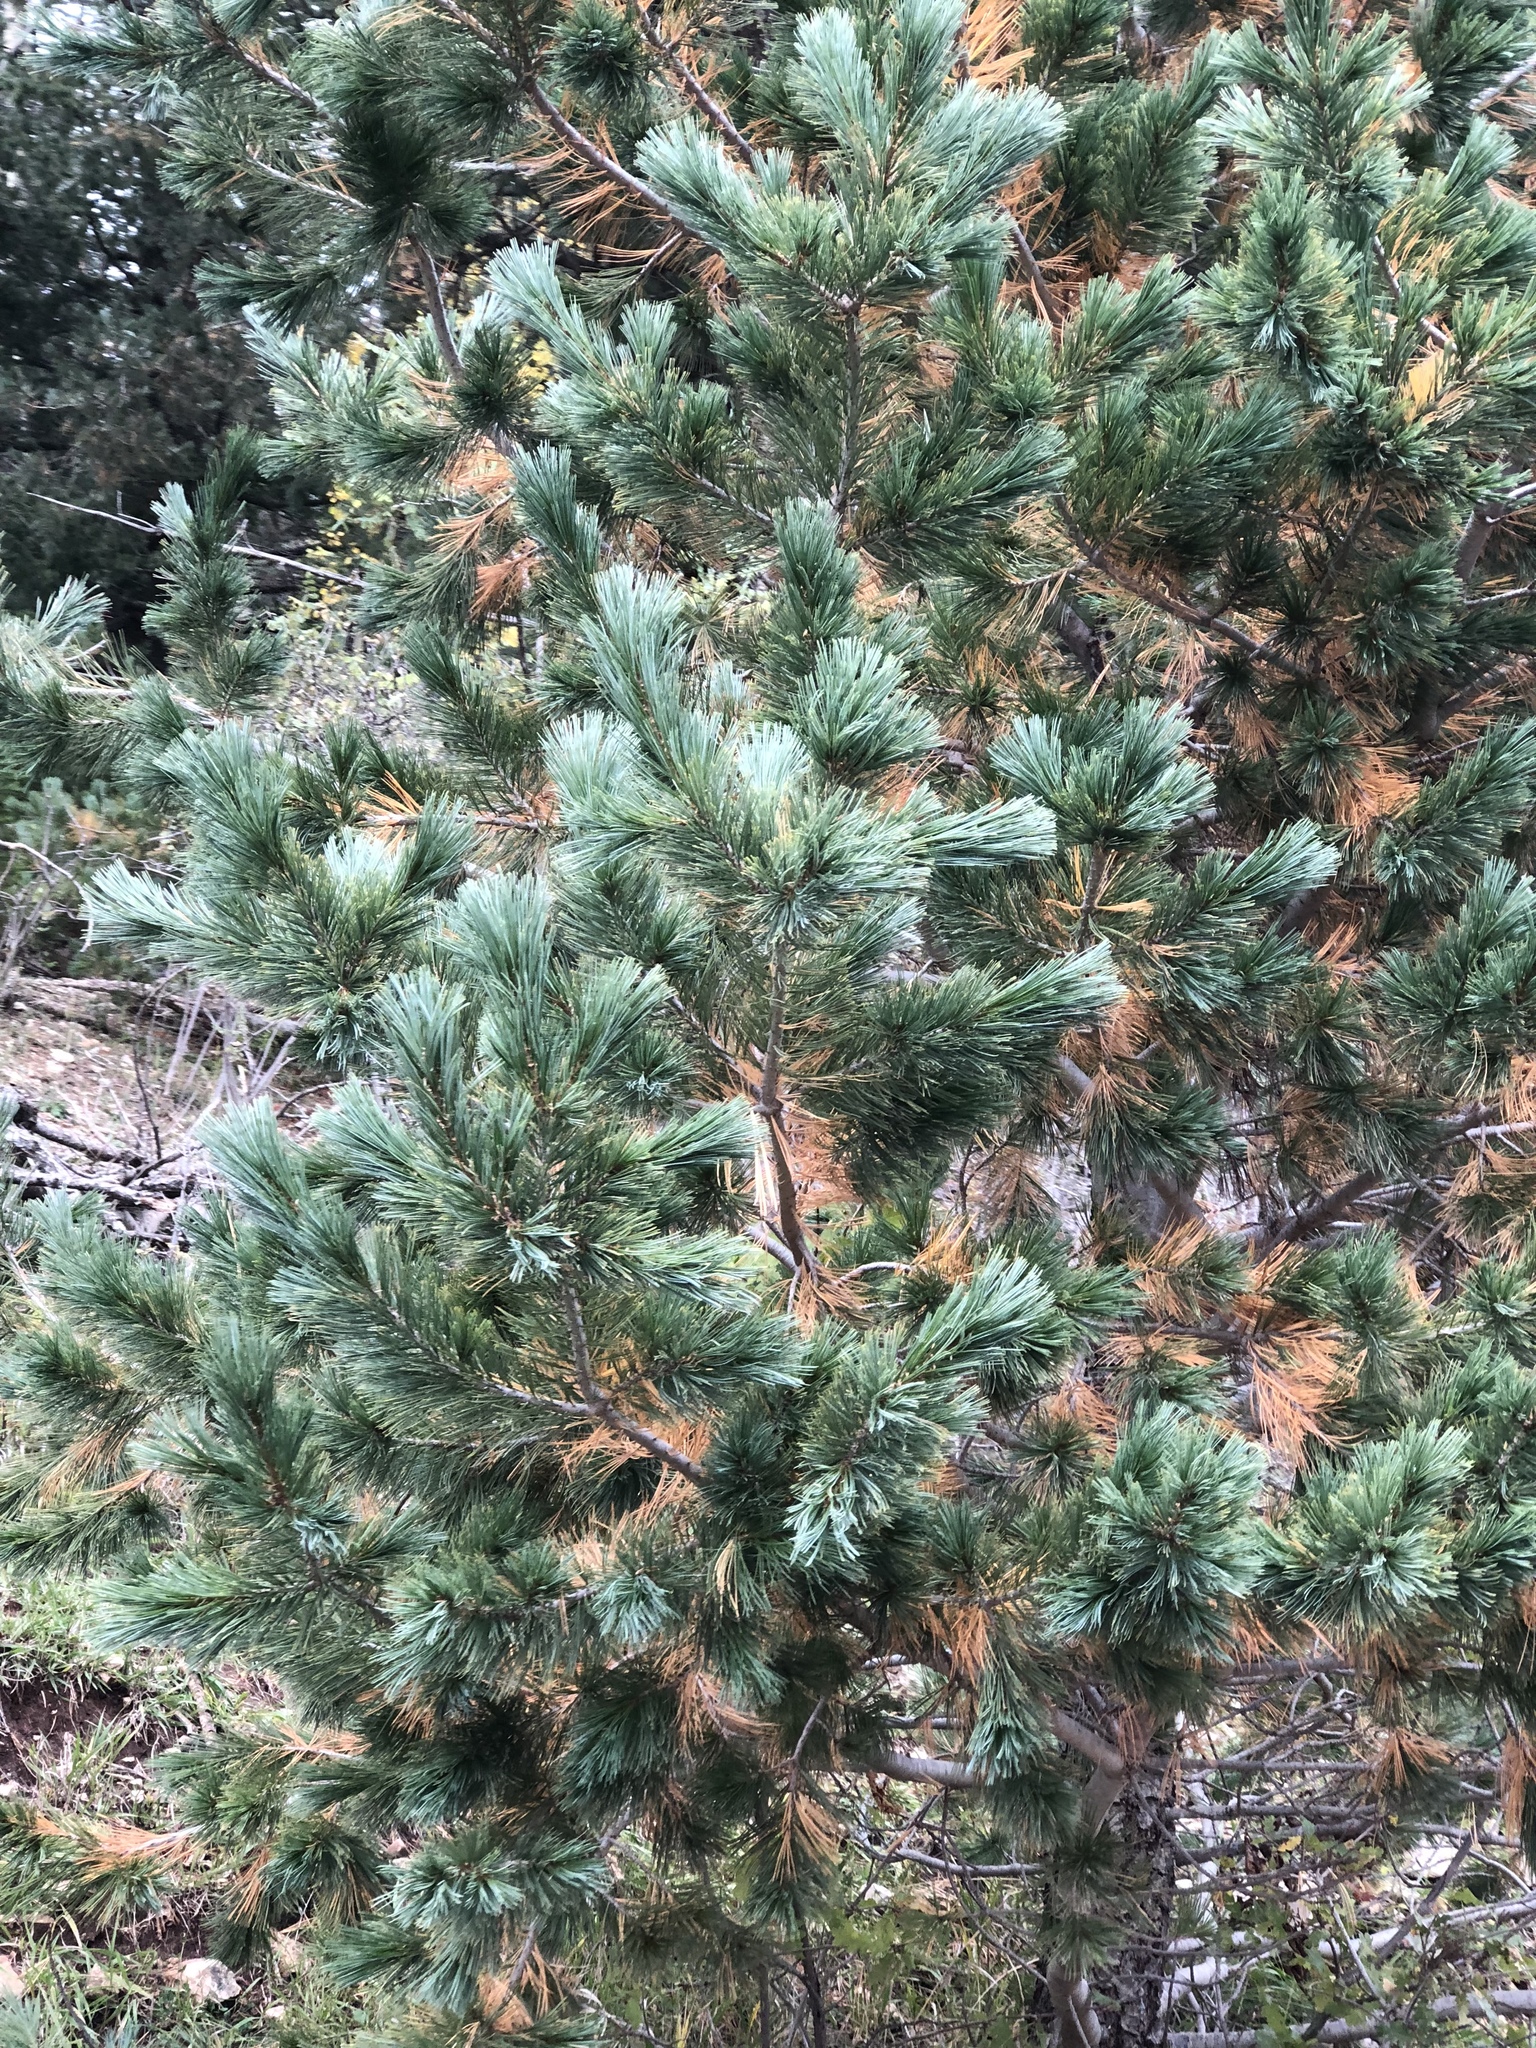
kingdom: Plantae
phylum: Tracheophyta
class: Pinopsida
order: Pinales
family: Pinaceae
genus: Pinus
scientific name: Pinus strobiformis
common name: Southwestern white pine
